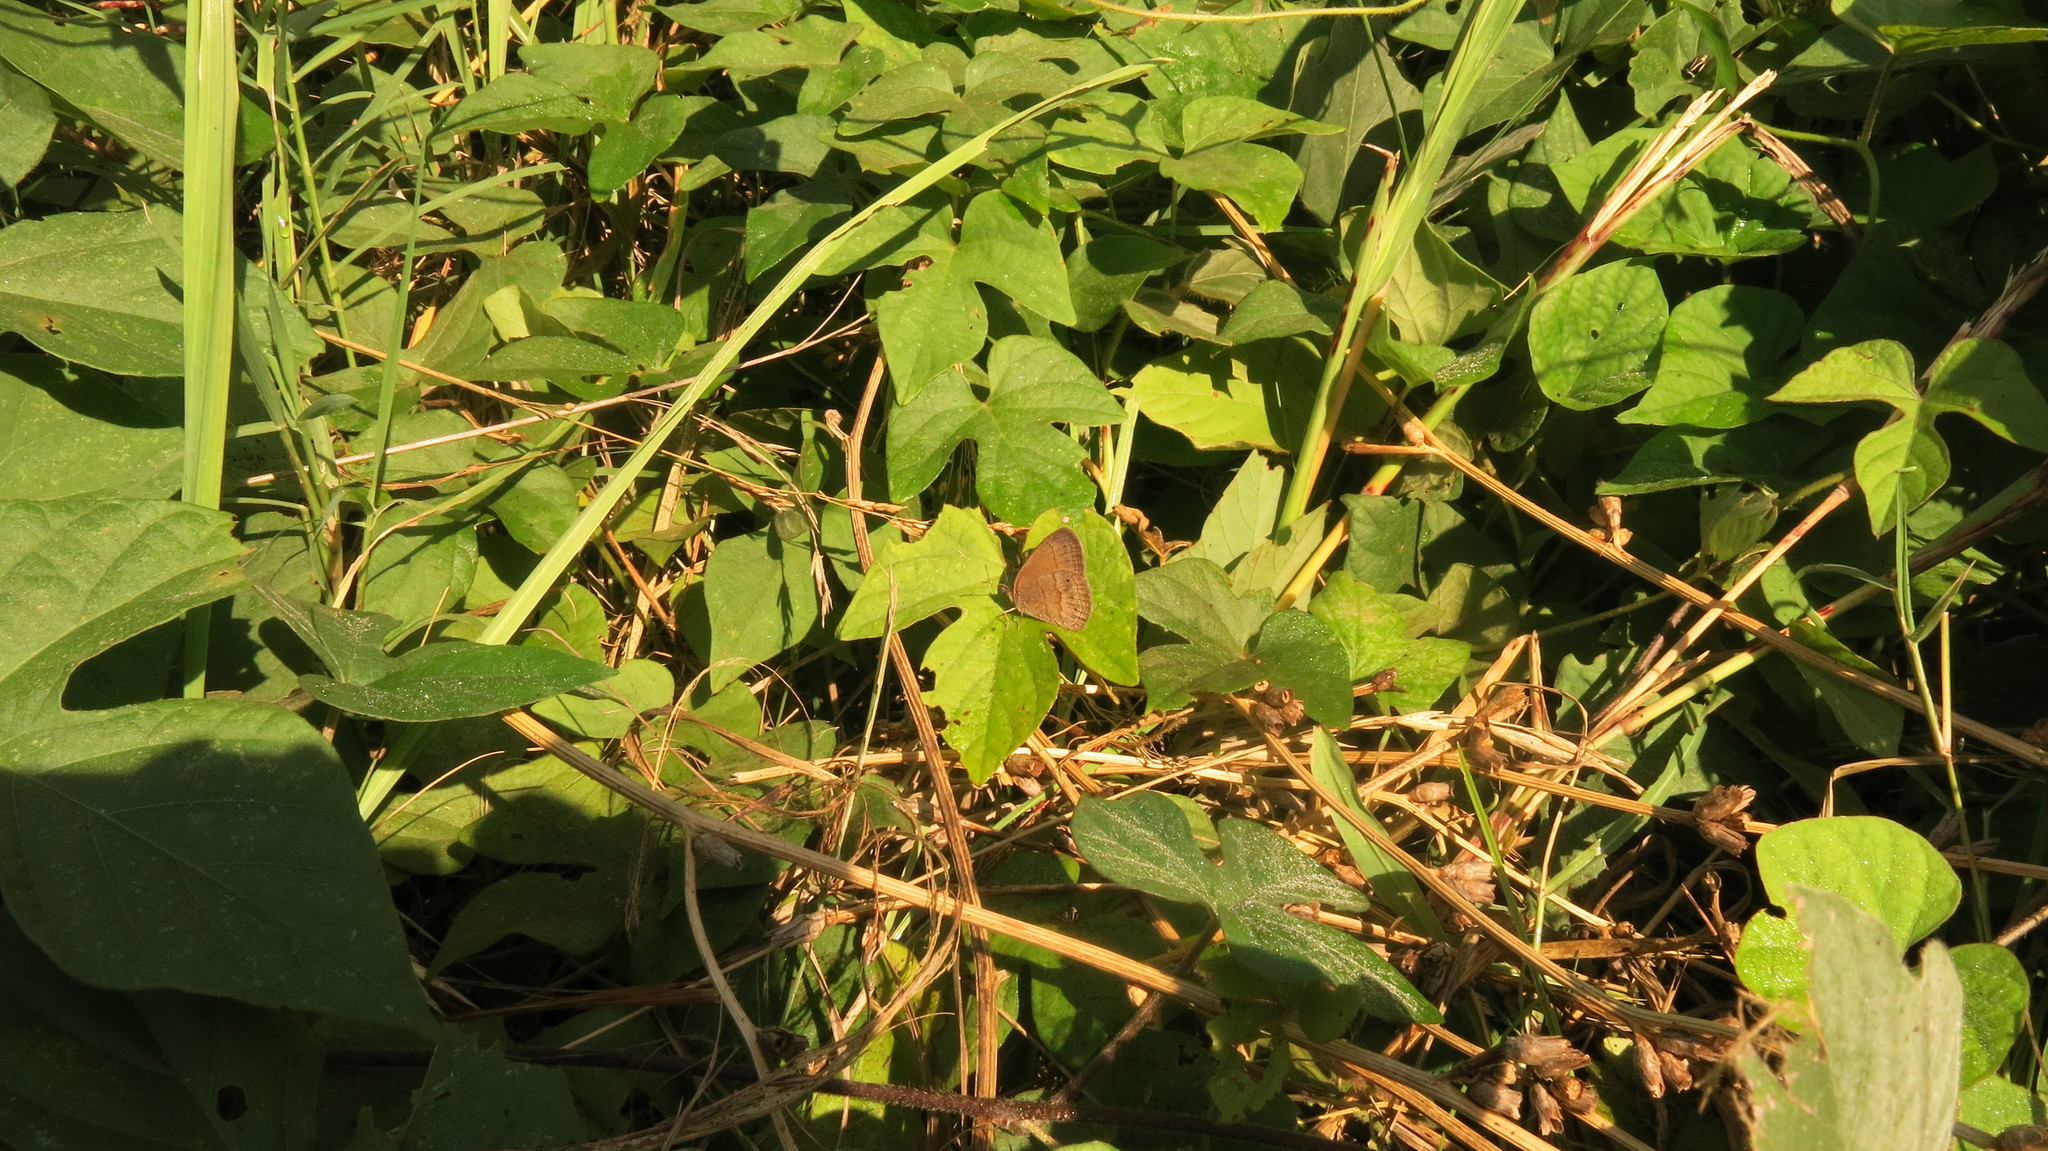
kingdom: Animalia
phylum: Arthropoda
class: Insecta
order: Lepidoptera
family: Nymphalidae
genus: Yphthimoides
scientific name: Yphthimoides celmis
